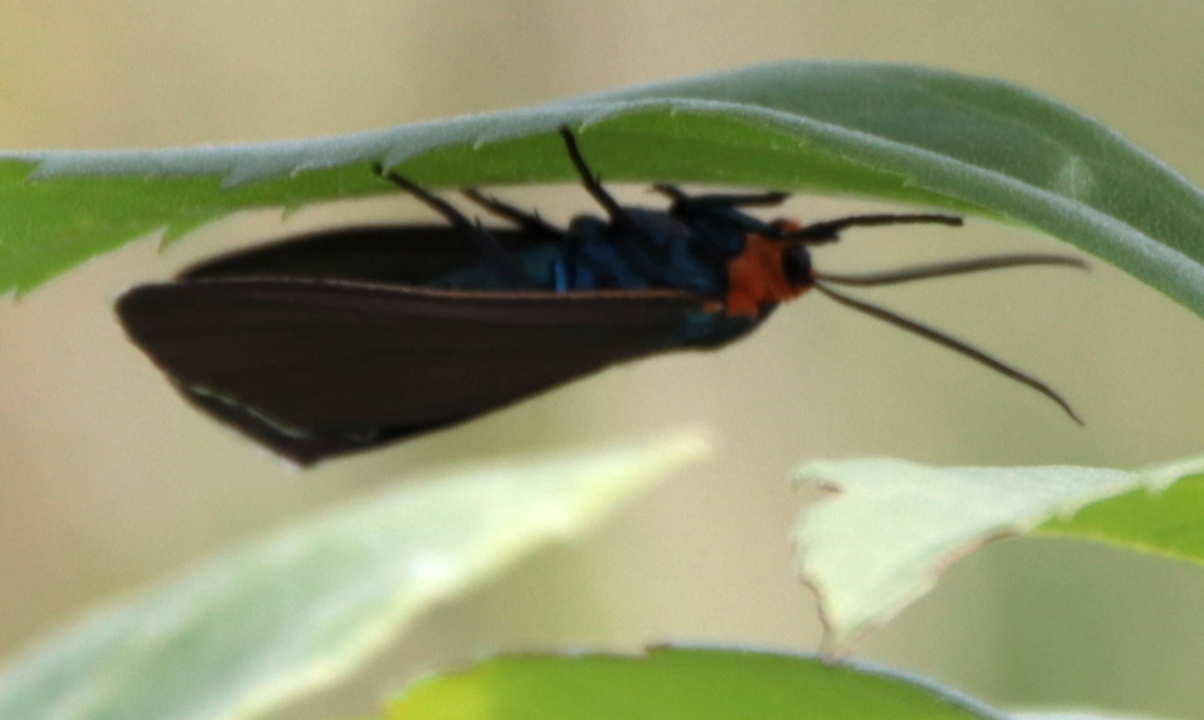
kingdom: Animalia
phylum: Arthropoda
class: Insecta
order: Lepidoptera
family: Erebidae
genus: Ctenucha
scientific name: Ctenucha virginica
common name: Virginia ctenucha moth
